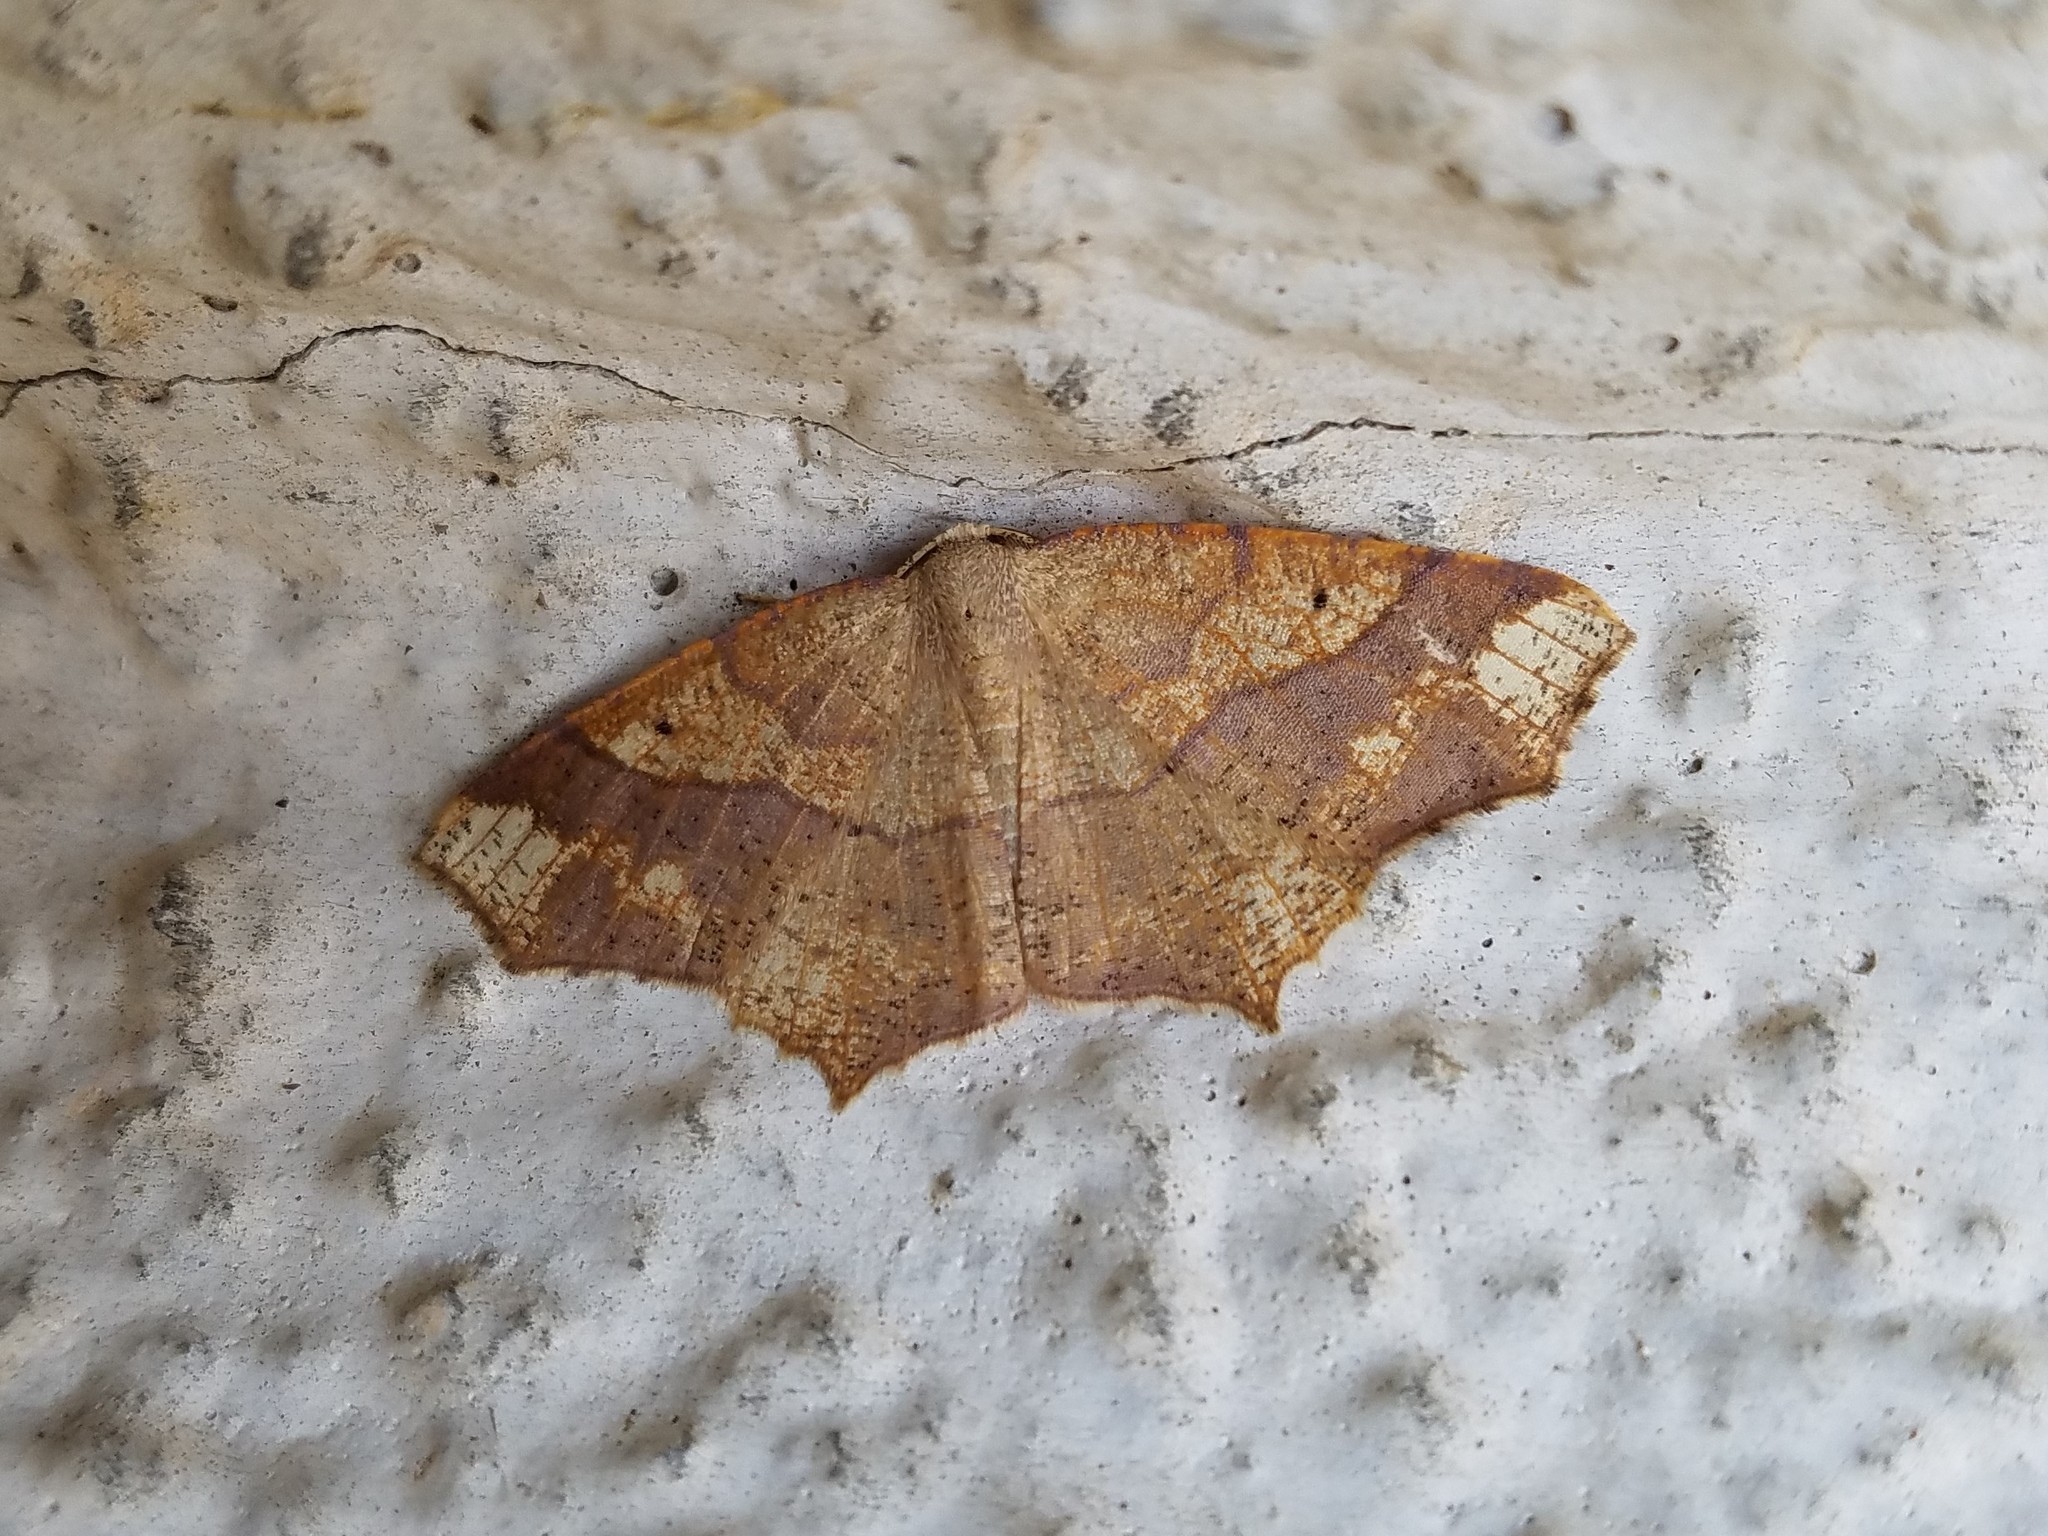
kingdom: Animalia
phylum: Arthropoda
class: Insecta
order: Lepidoptera
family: Geometridae
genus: Besma
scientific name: Besma quercivoraria
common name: Oak besma
